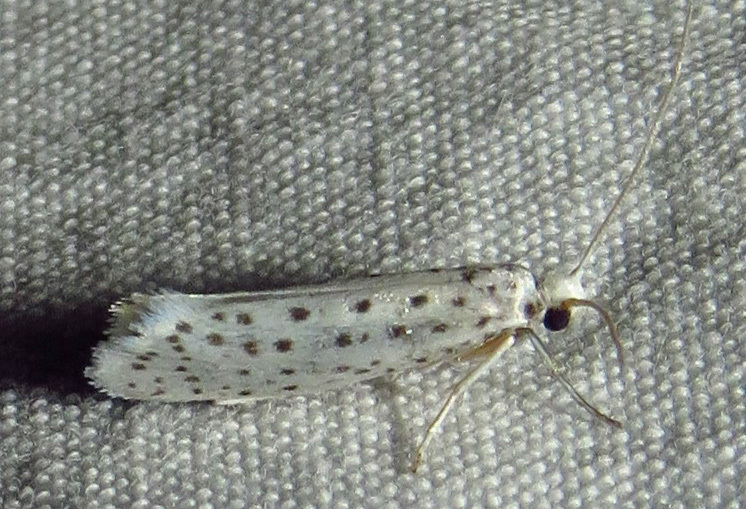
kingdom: Animalia
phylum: Arthropoda
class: Insecta
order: Lepidoptera
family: Yponomeutidae
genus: Yponomeuta
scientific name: Yponomeuta multipunctella
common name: American ermine moth
